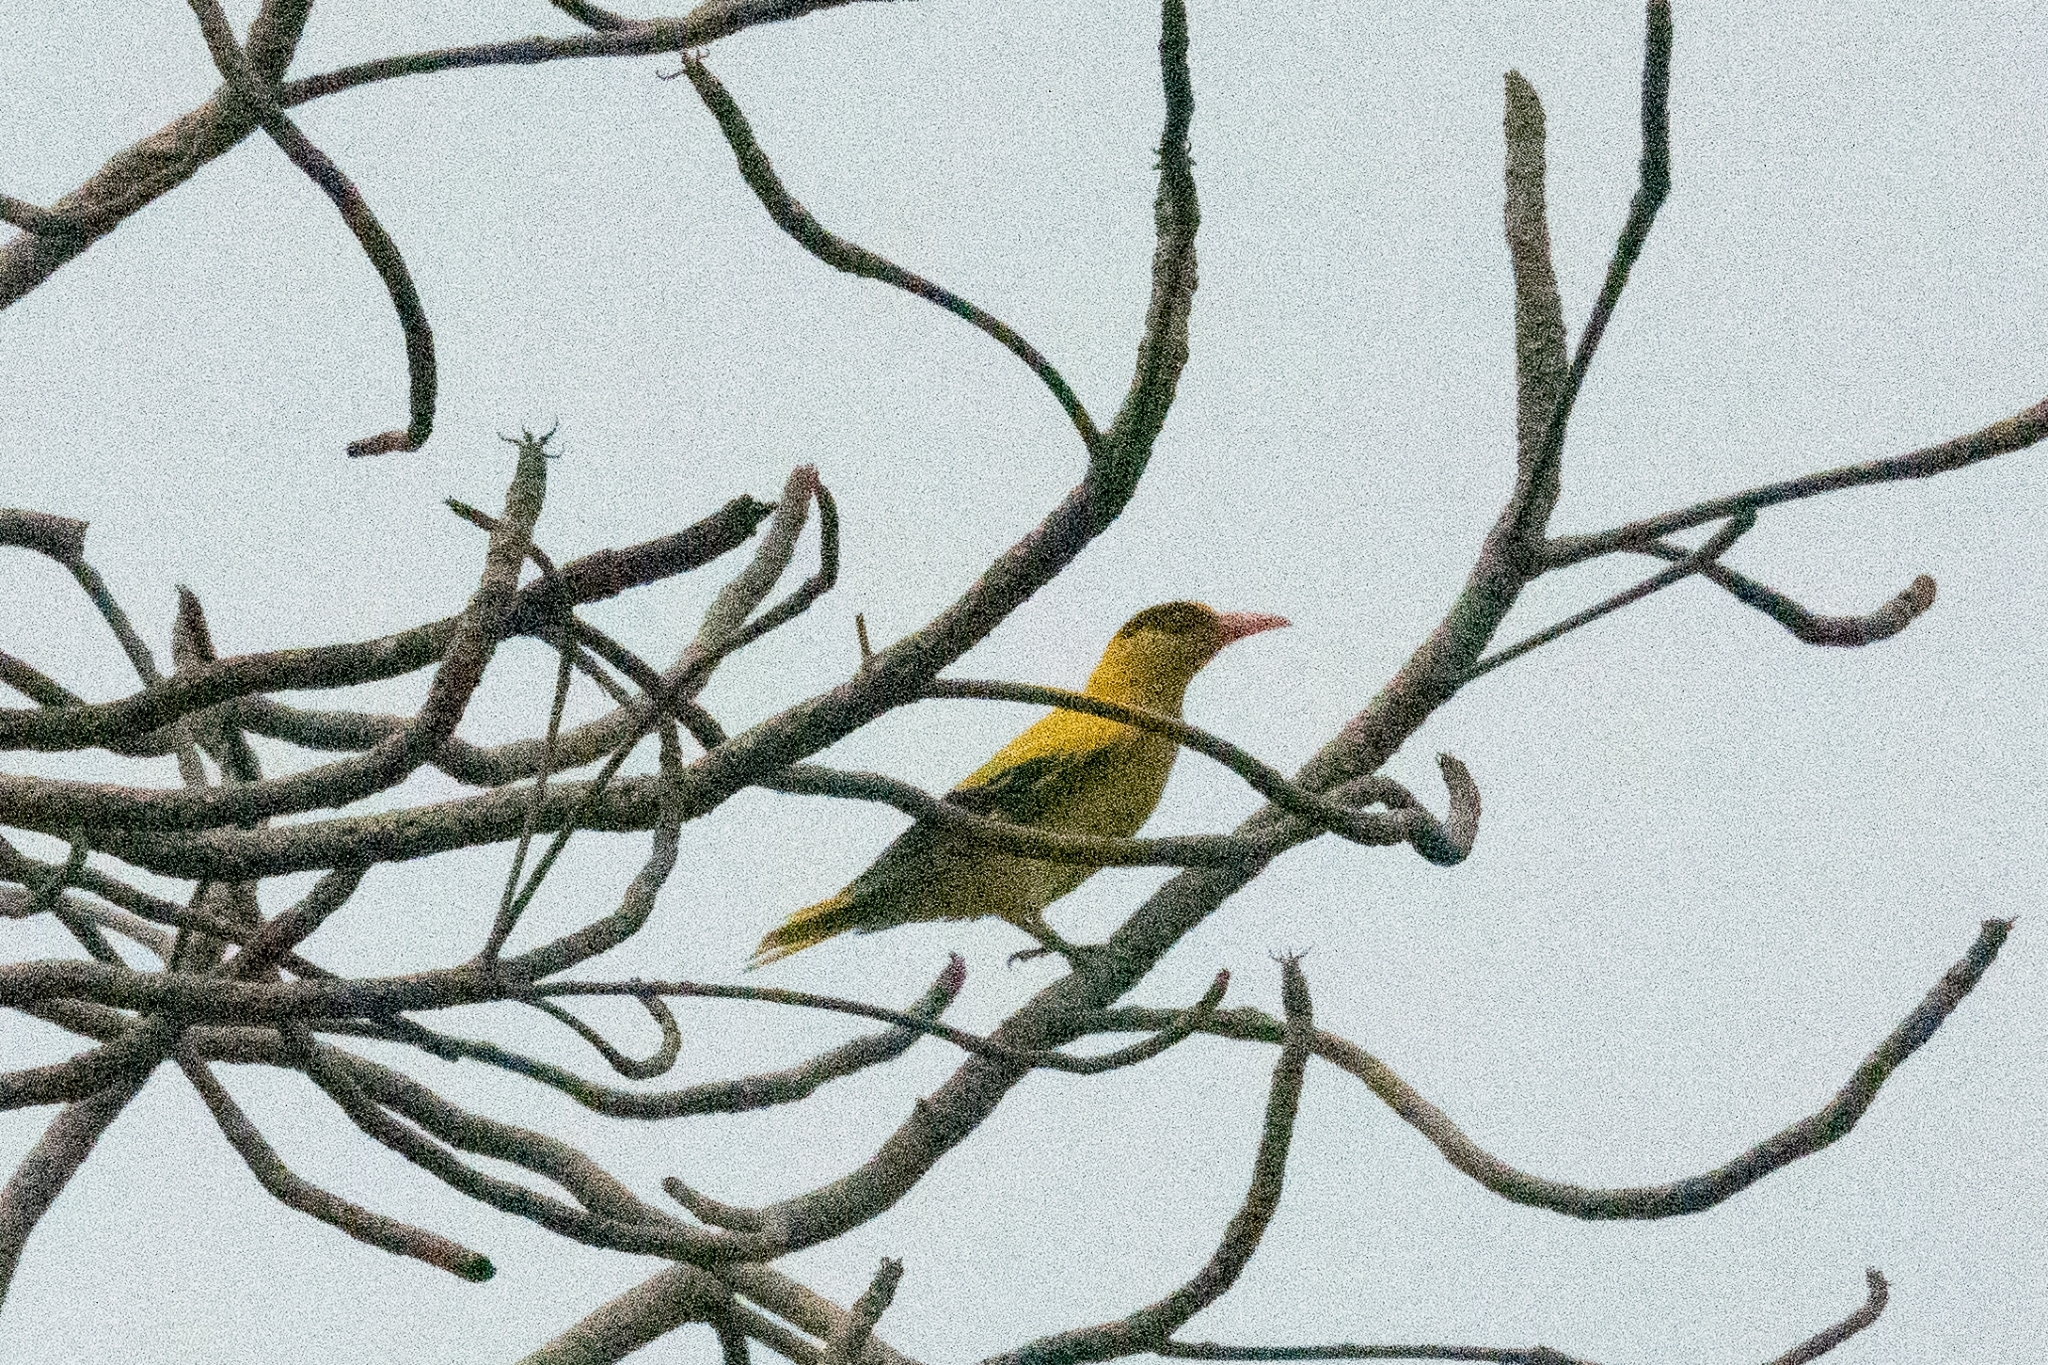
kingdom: Animalia
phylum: Chordata
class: Aves
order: Passeriformes
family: Oriolidae
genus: Oriolus
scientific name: Oriolus chinensis
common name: Black-naped oriole
